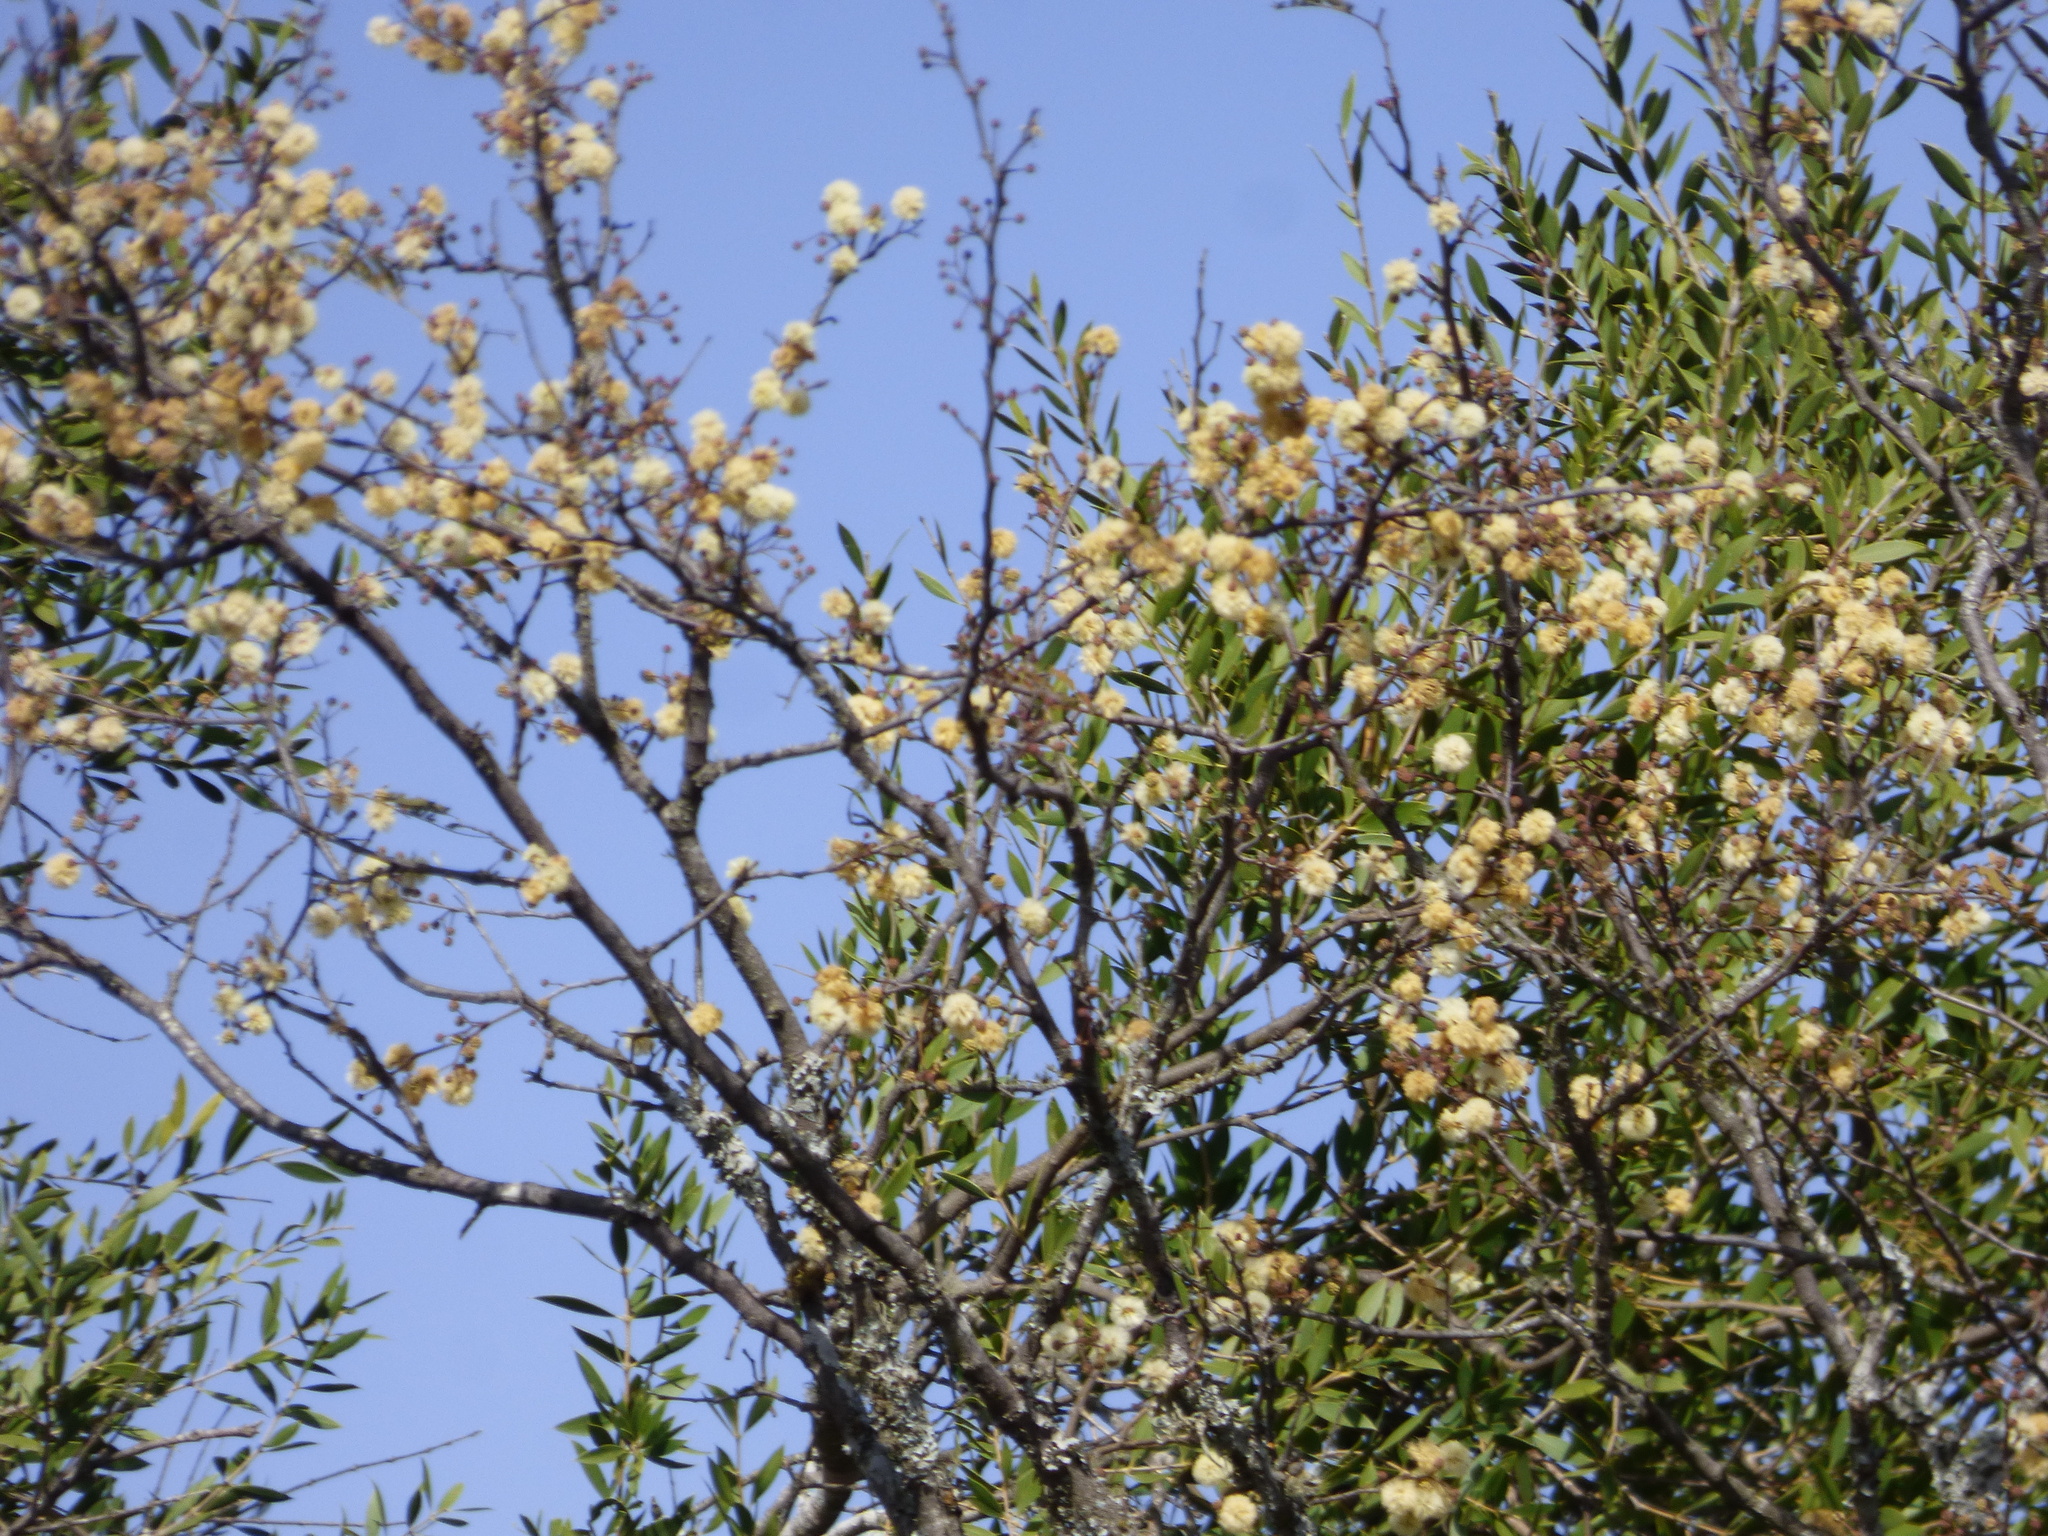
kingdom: Plantae
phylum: Tracheophyta
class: Magnoliopsida
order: Fabales
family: Fabaceae
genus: Senegalia
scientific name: Senegalia praecox
